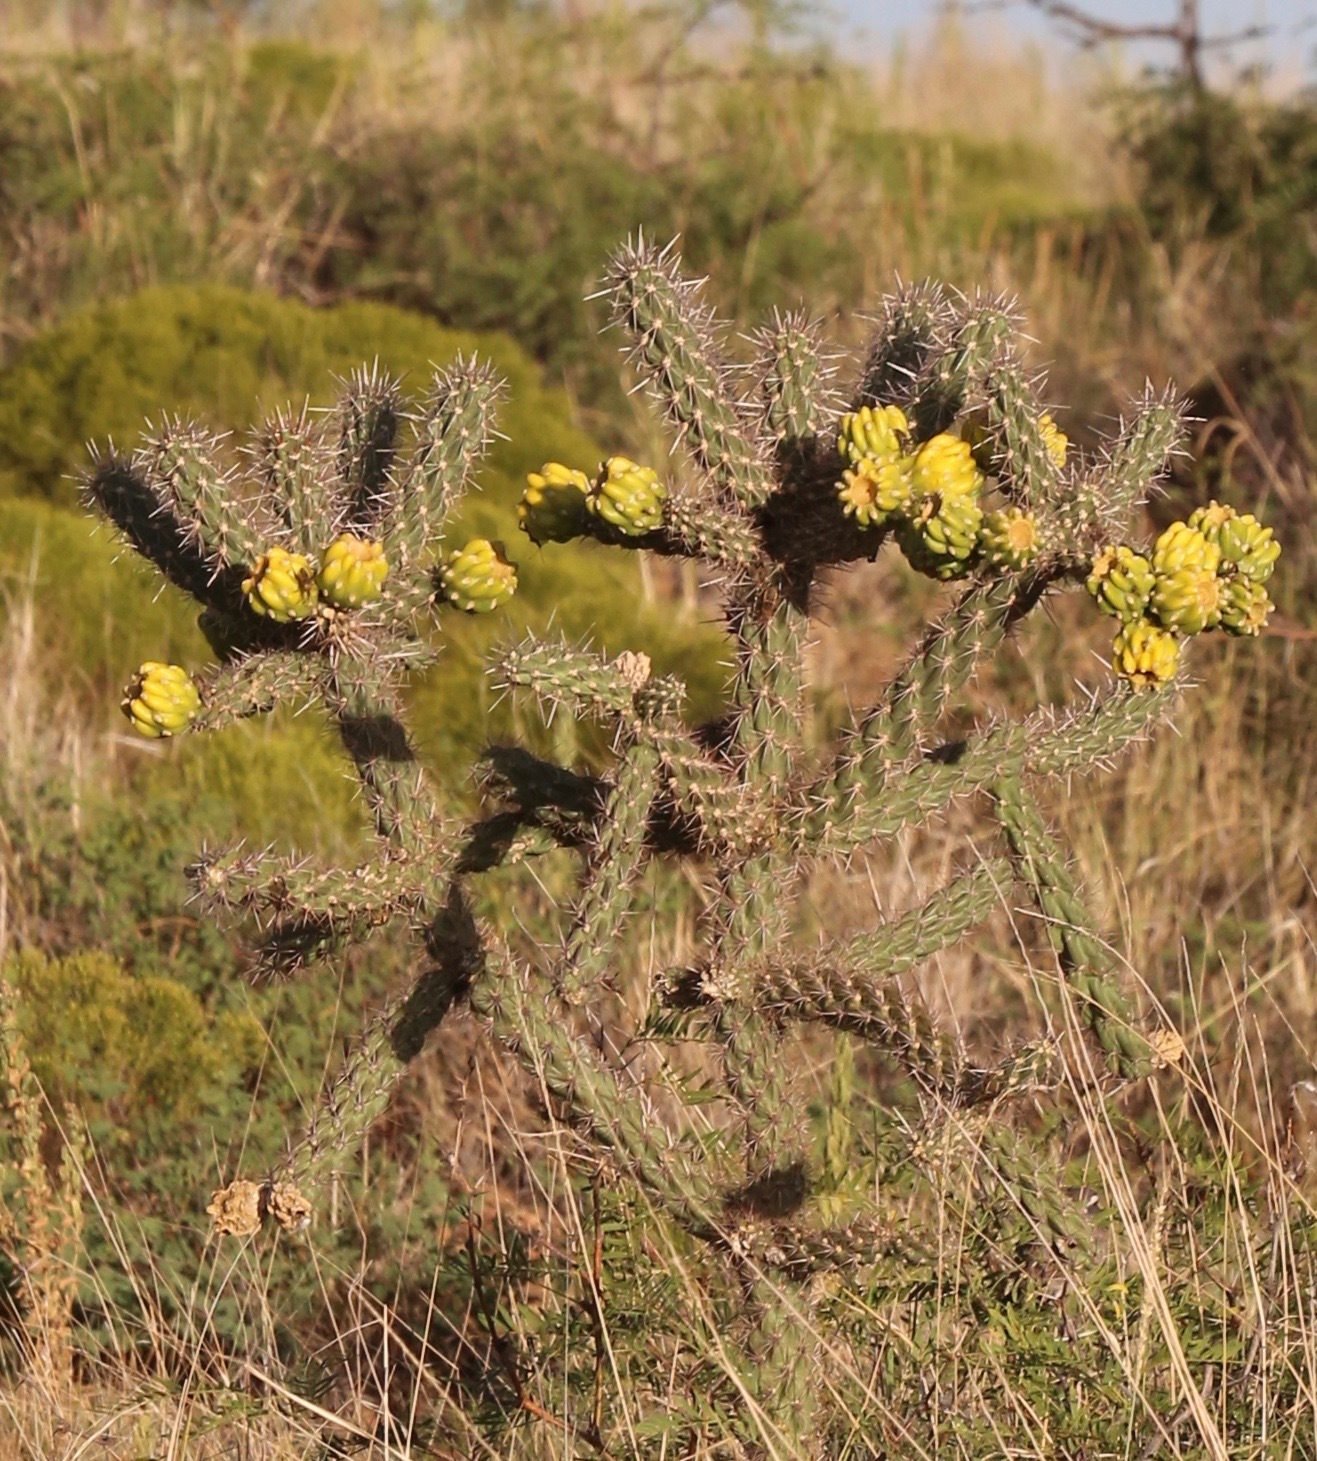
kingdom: Plantae
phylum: Tracheophyta
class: Magnoliopsida
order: Caryophyllales
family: Cactaceae
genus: Cylindropuntia
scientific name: Cylindropuntia imbricata
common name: Candelabrum cactus
